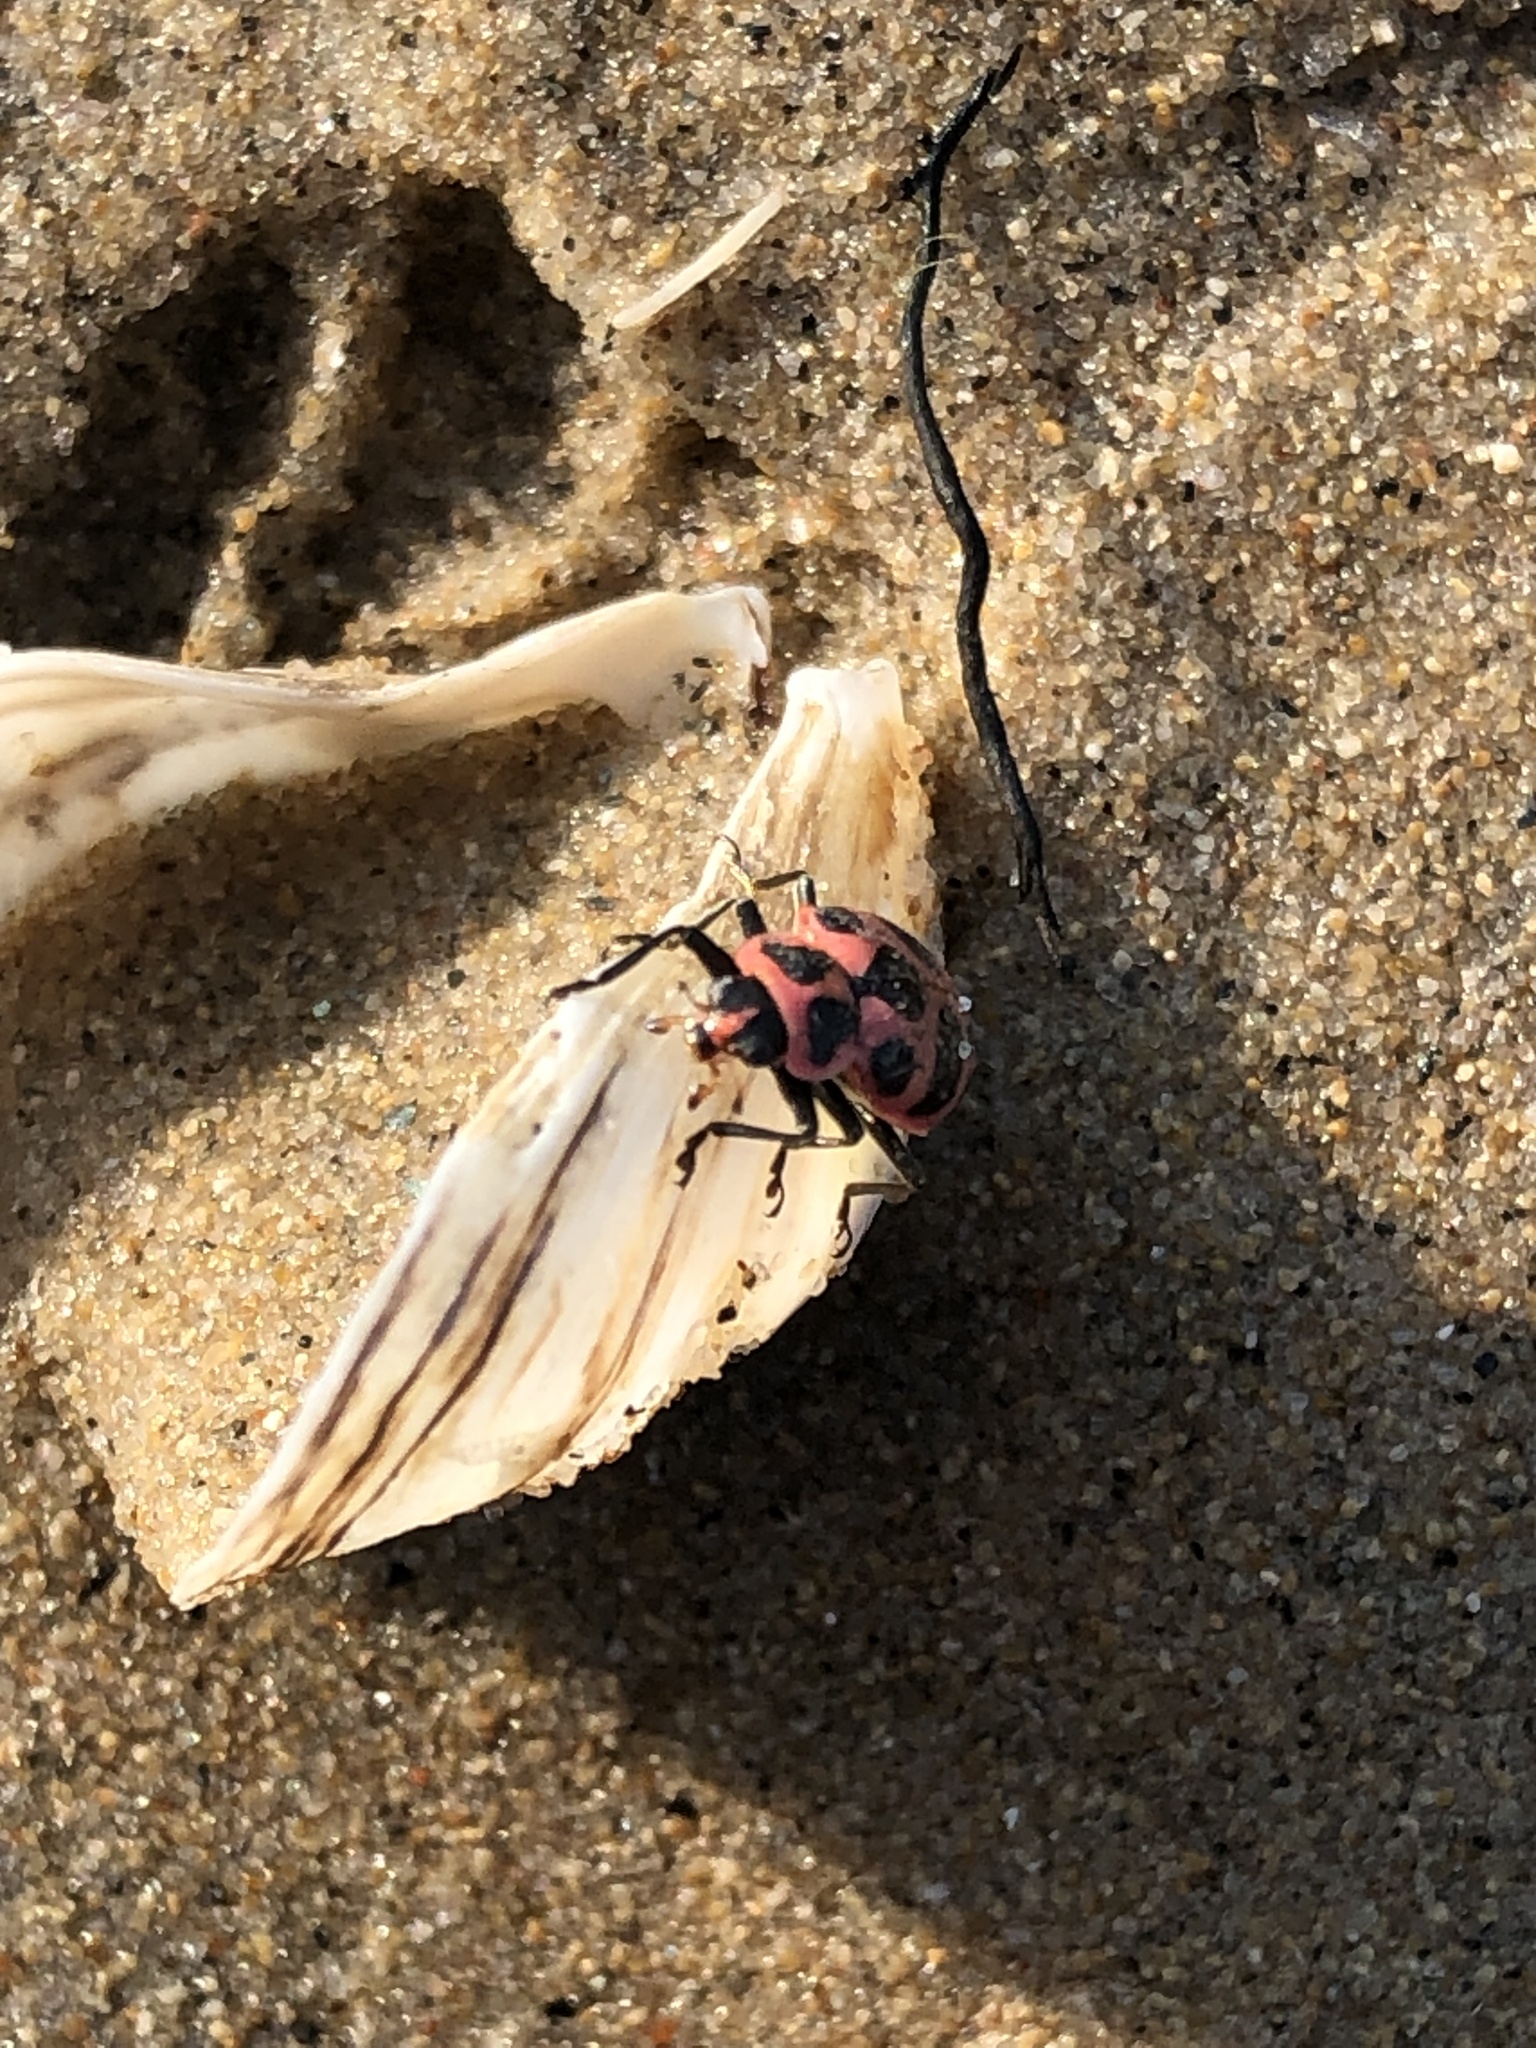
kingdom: Animalia
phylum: Arthropoda
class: Insecta
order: Coleoptera
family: Coccinellidae
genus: Coleomegilla
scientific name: Coleomegilla maculata
